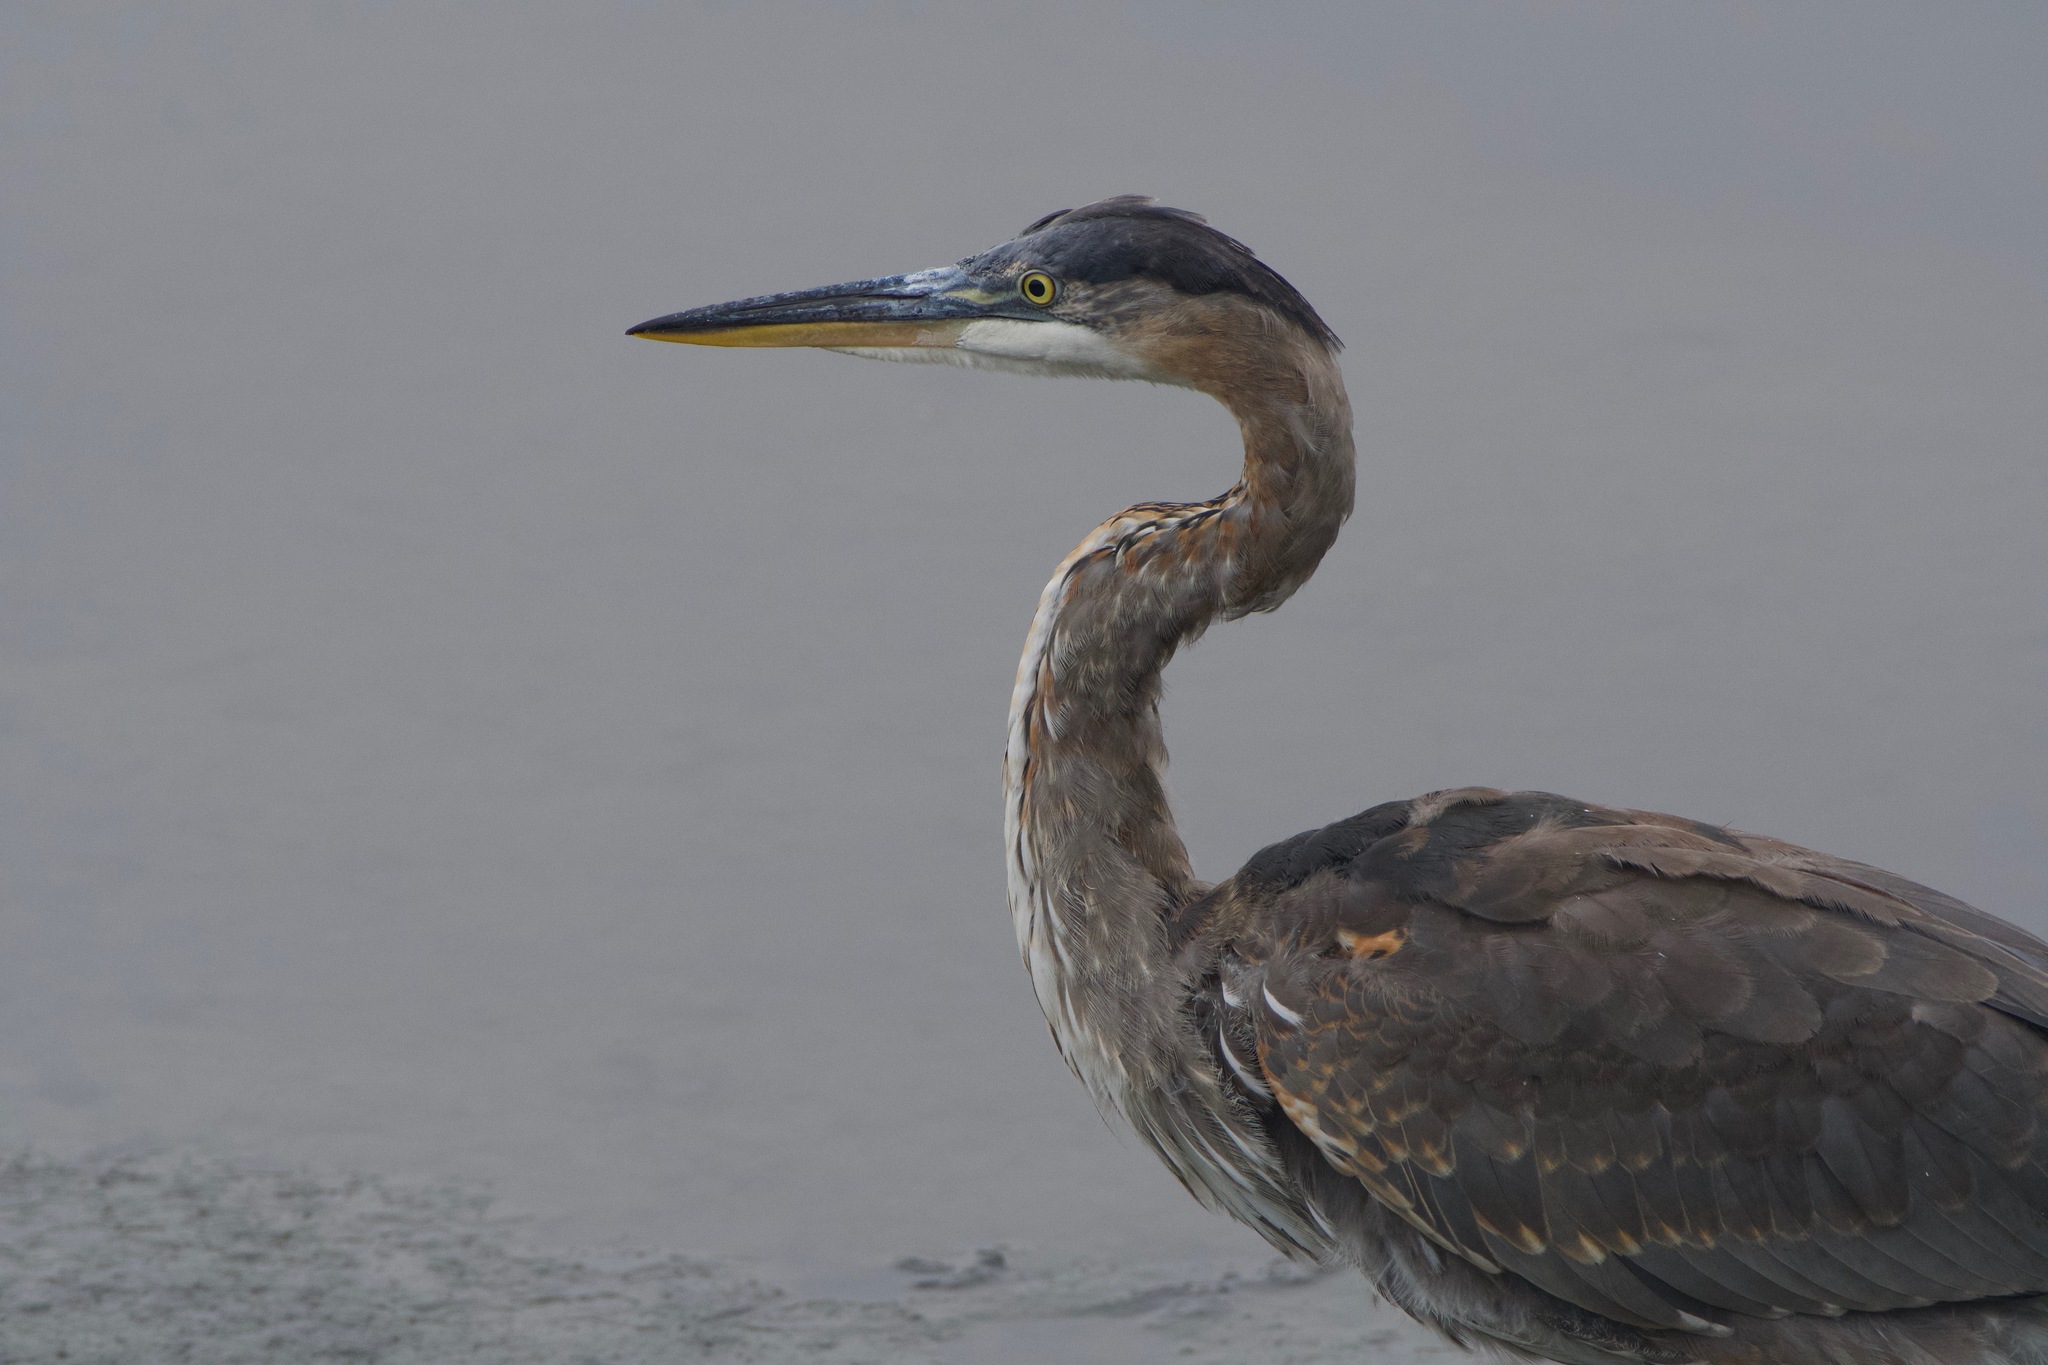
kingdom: Animalia
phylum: Chordata
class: Aves
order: Pelecaniformes
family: Ardeidae
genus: Ardea
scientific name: Ardea herodias
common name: Great blue heron
